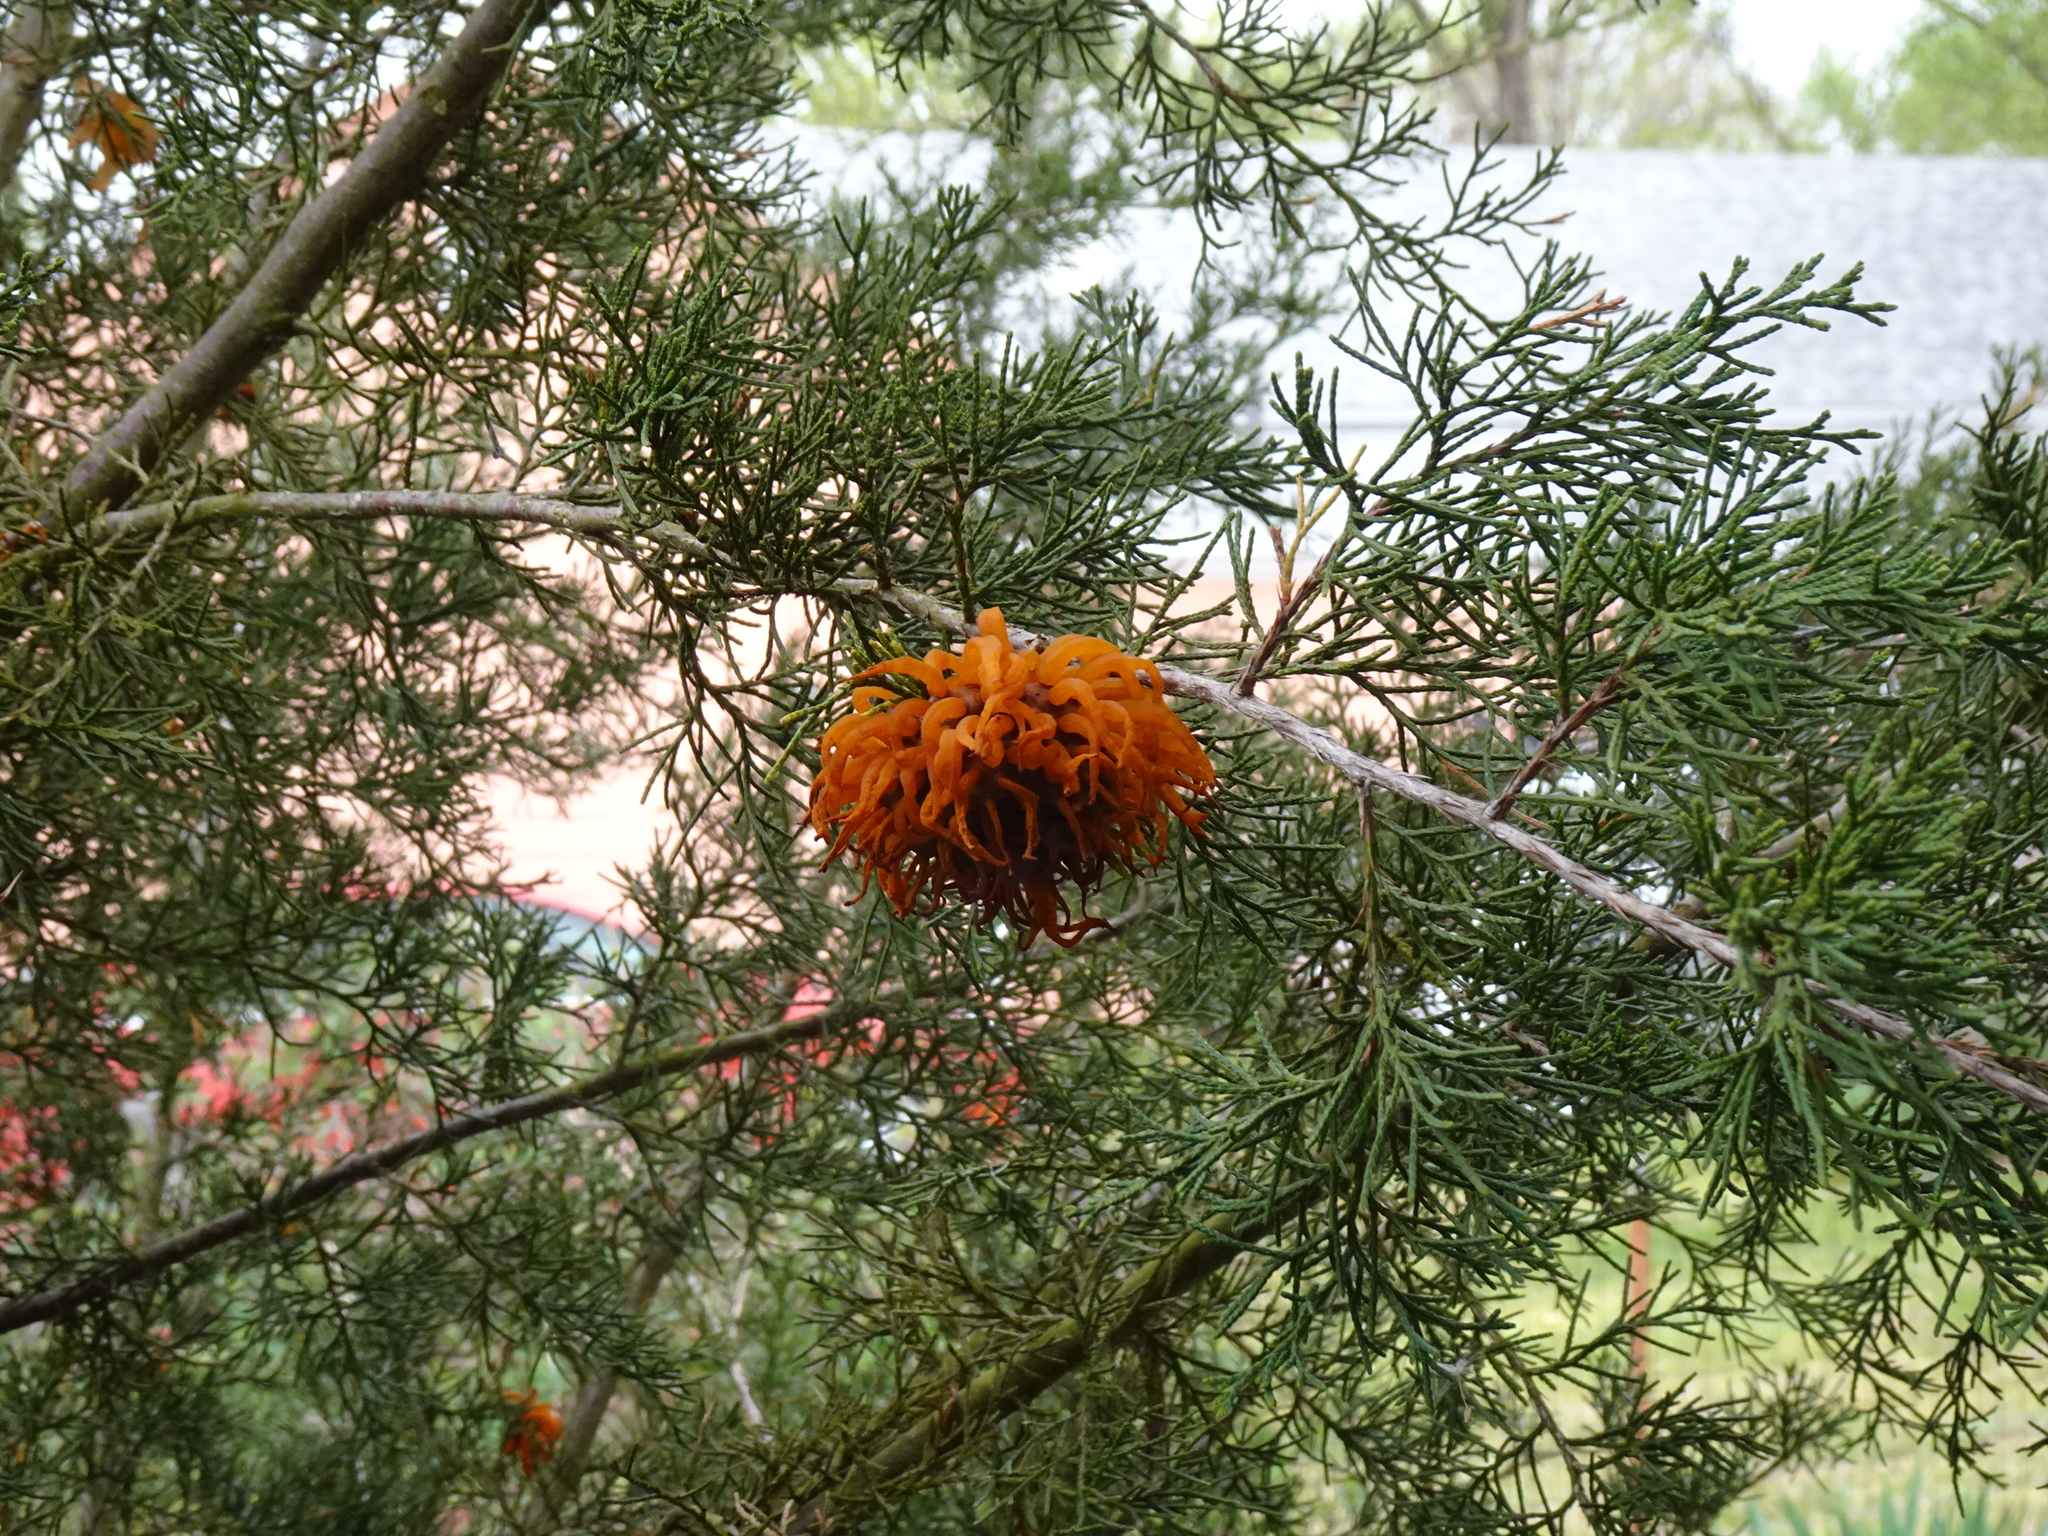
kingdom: Fungi
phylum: Basidiomycota
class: Pucciniomycetes
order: Pucciniales
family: Gymnosporangiaceae
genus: Gymnosporangium
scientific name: Gymnosporangium juniperi-virginianae
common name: Juniper-apple rust
